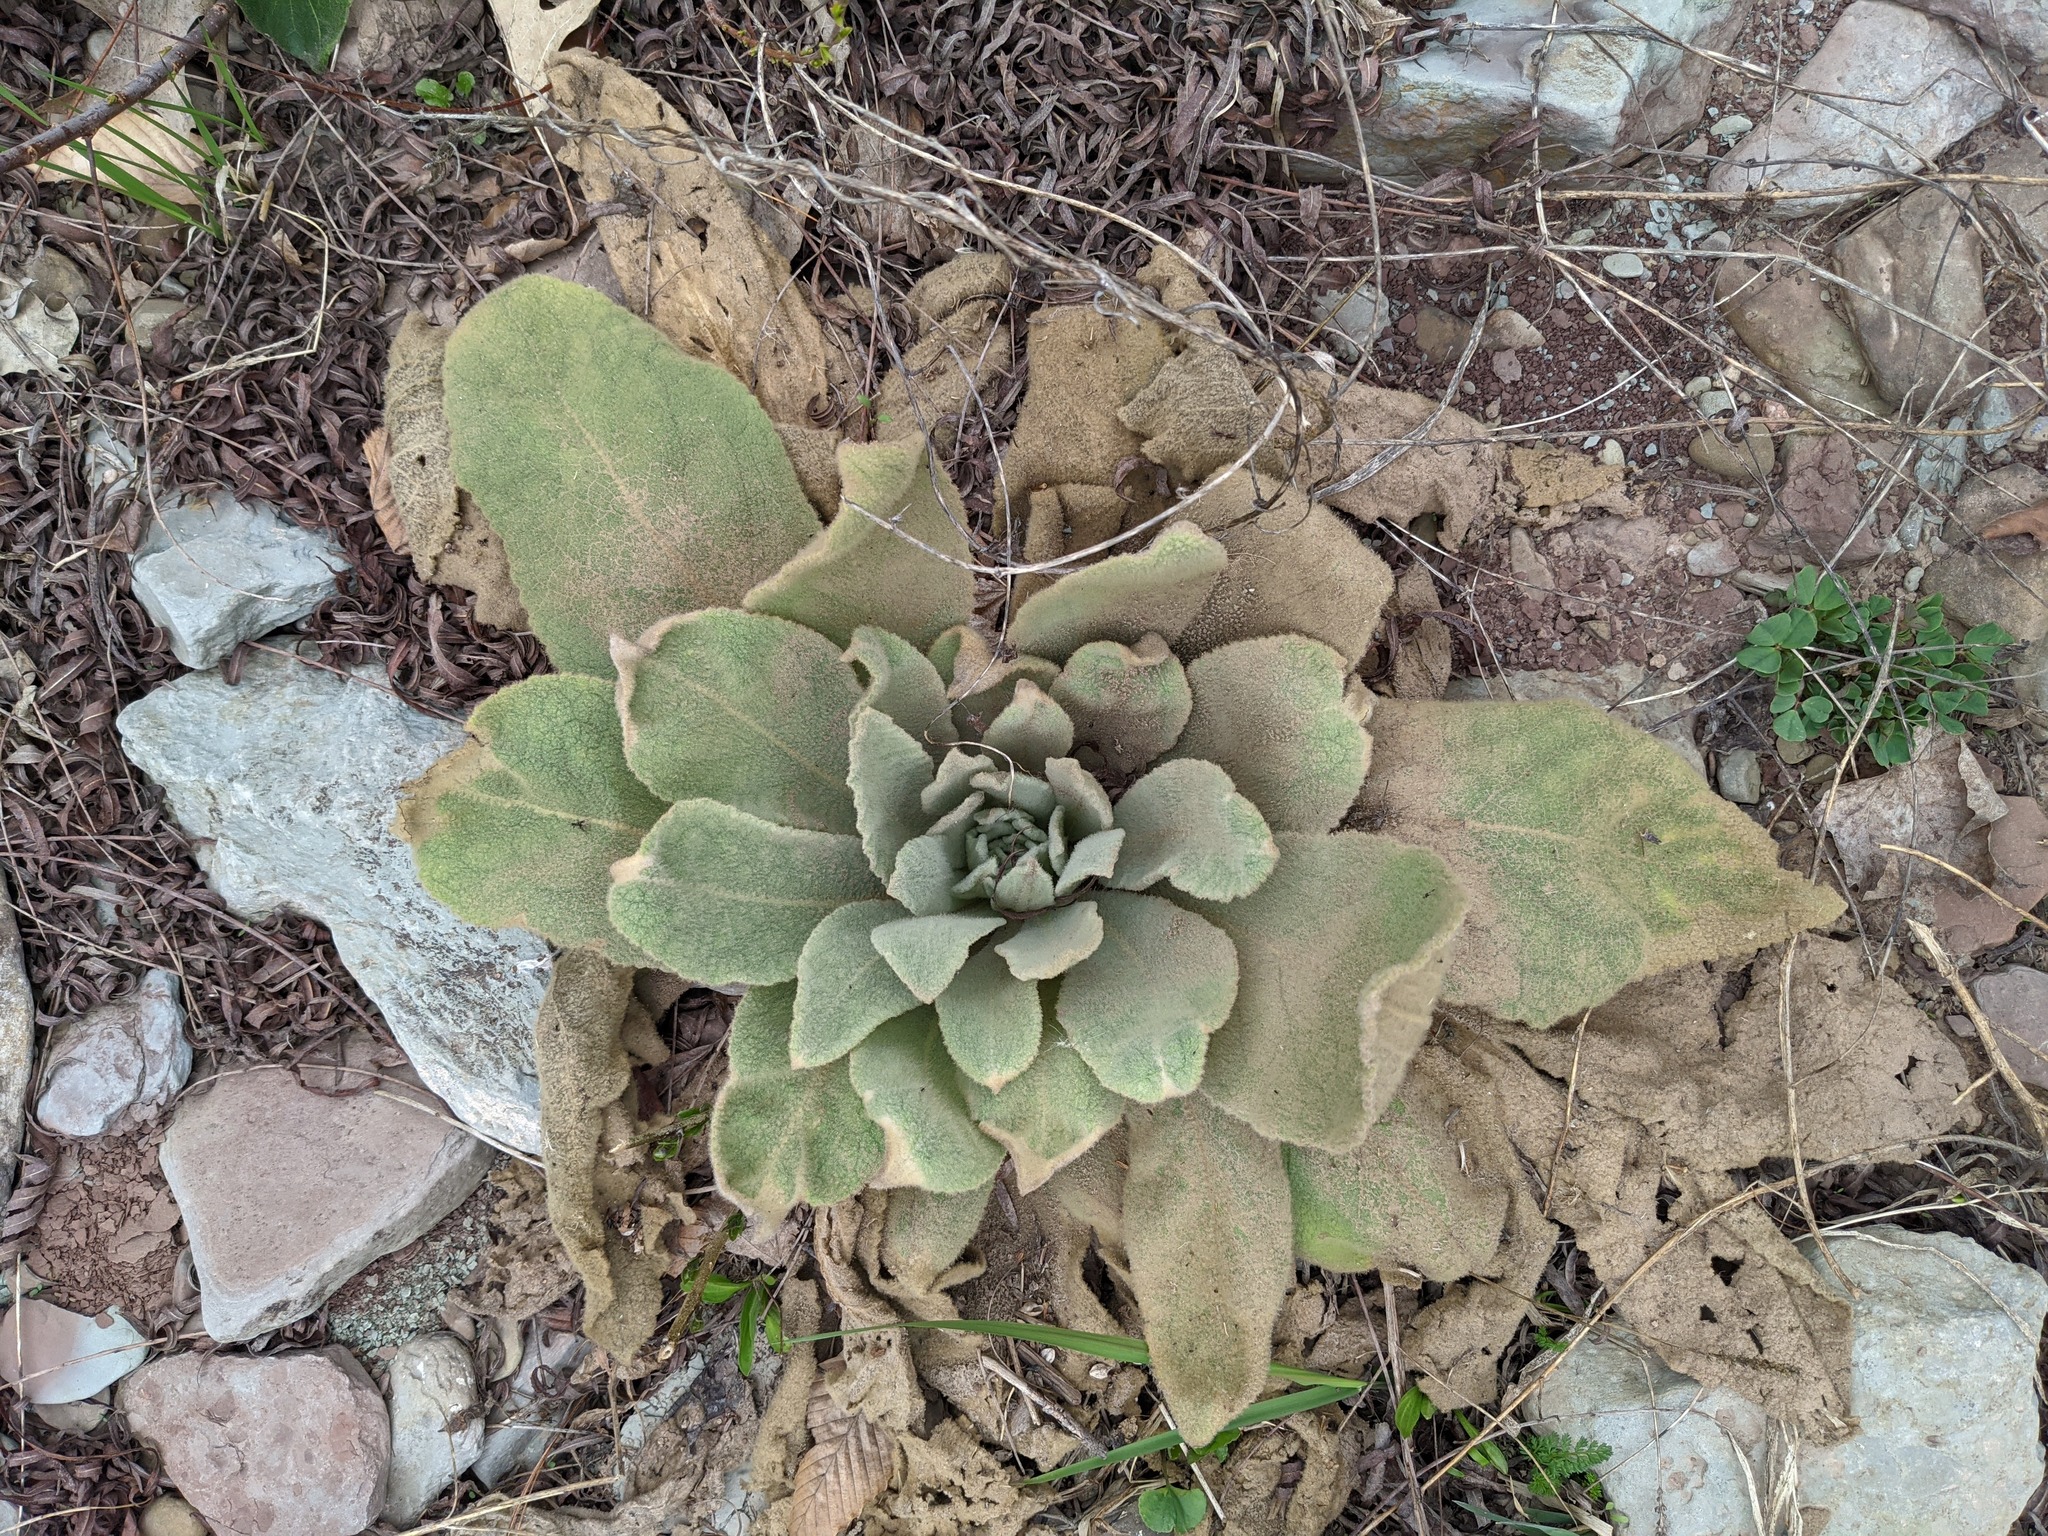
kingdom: Plantae
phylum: Tracheophyta
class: Magnoliopsida
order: Lamiales
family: Scrophulariaceae
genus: Verbascum
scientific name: Verbascum thapsus
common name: Common mullein
